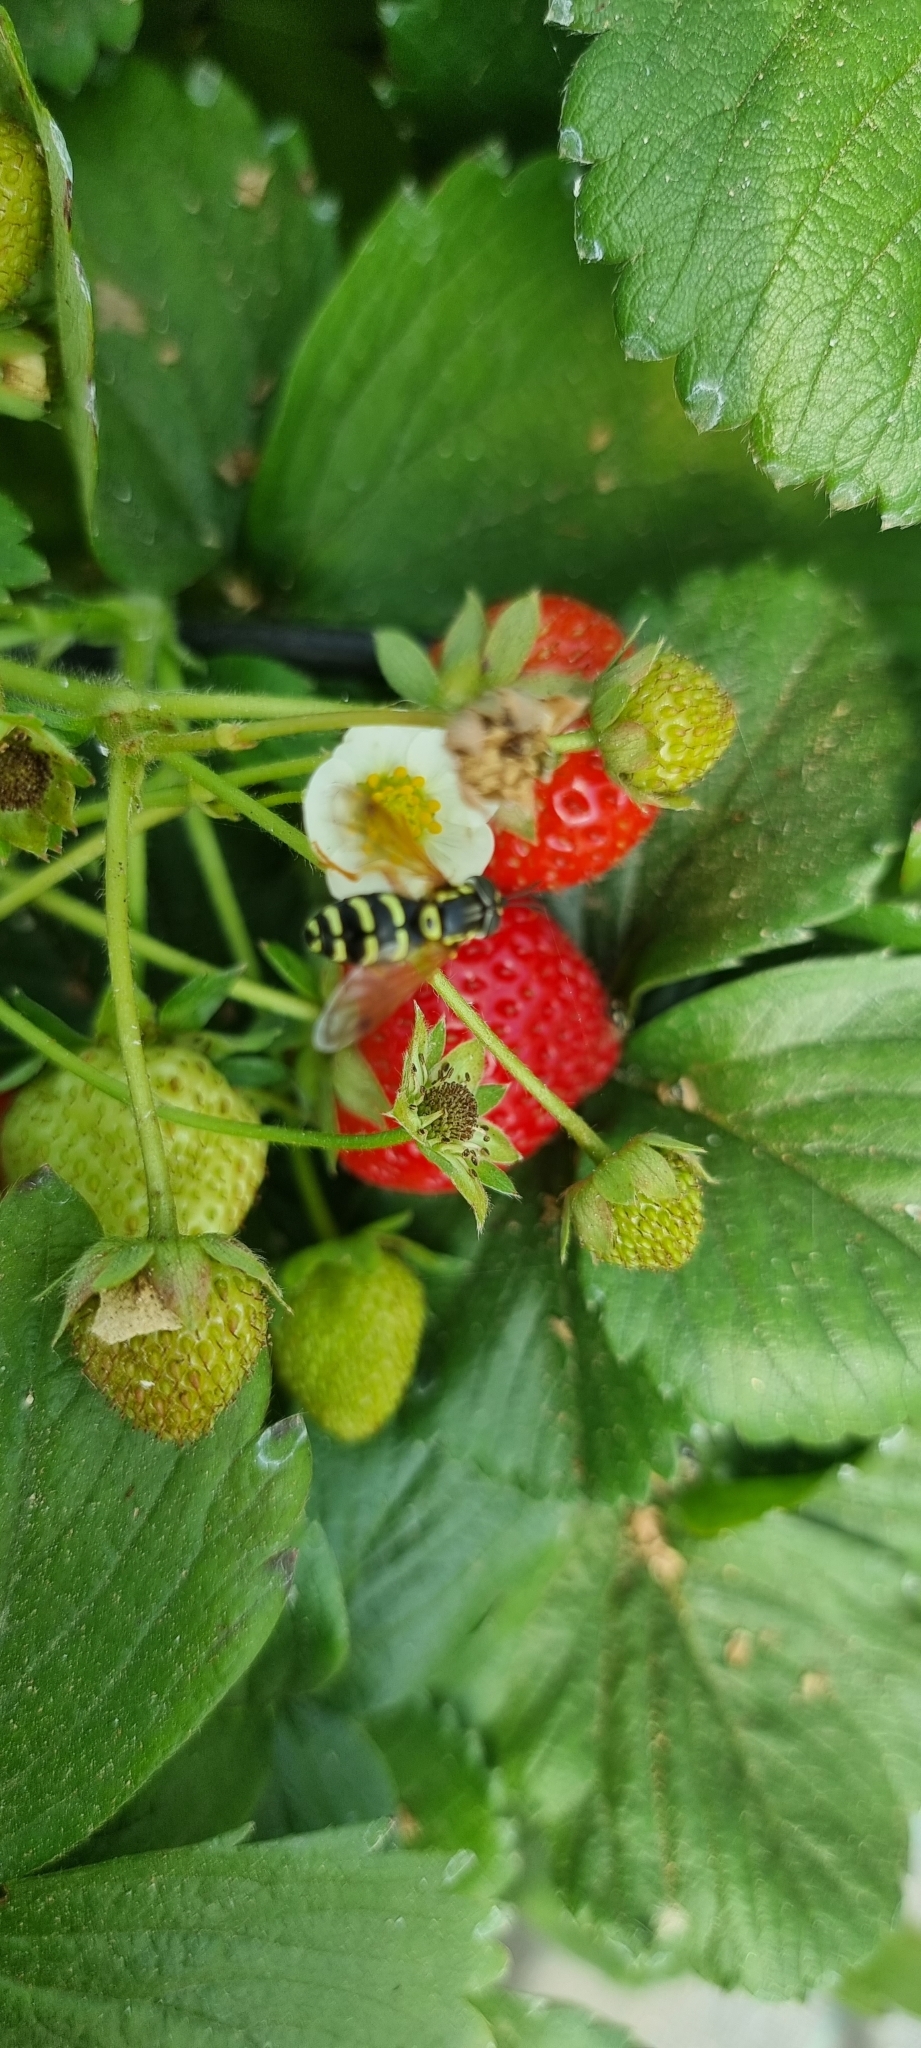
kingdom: Animalia
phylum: Arthropoda
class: Insecta
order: Diptera
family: Syrphidae
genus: Chrysotoxum
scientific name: Chrysotoxum festivum
